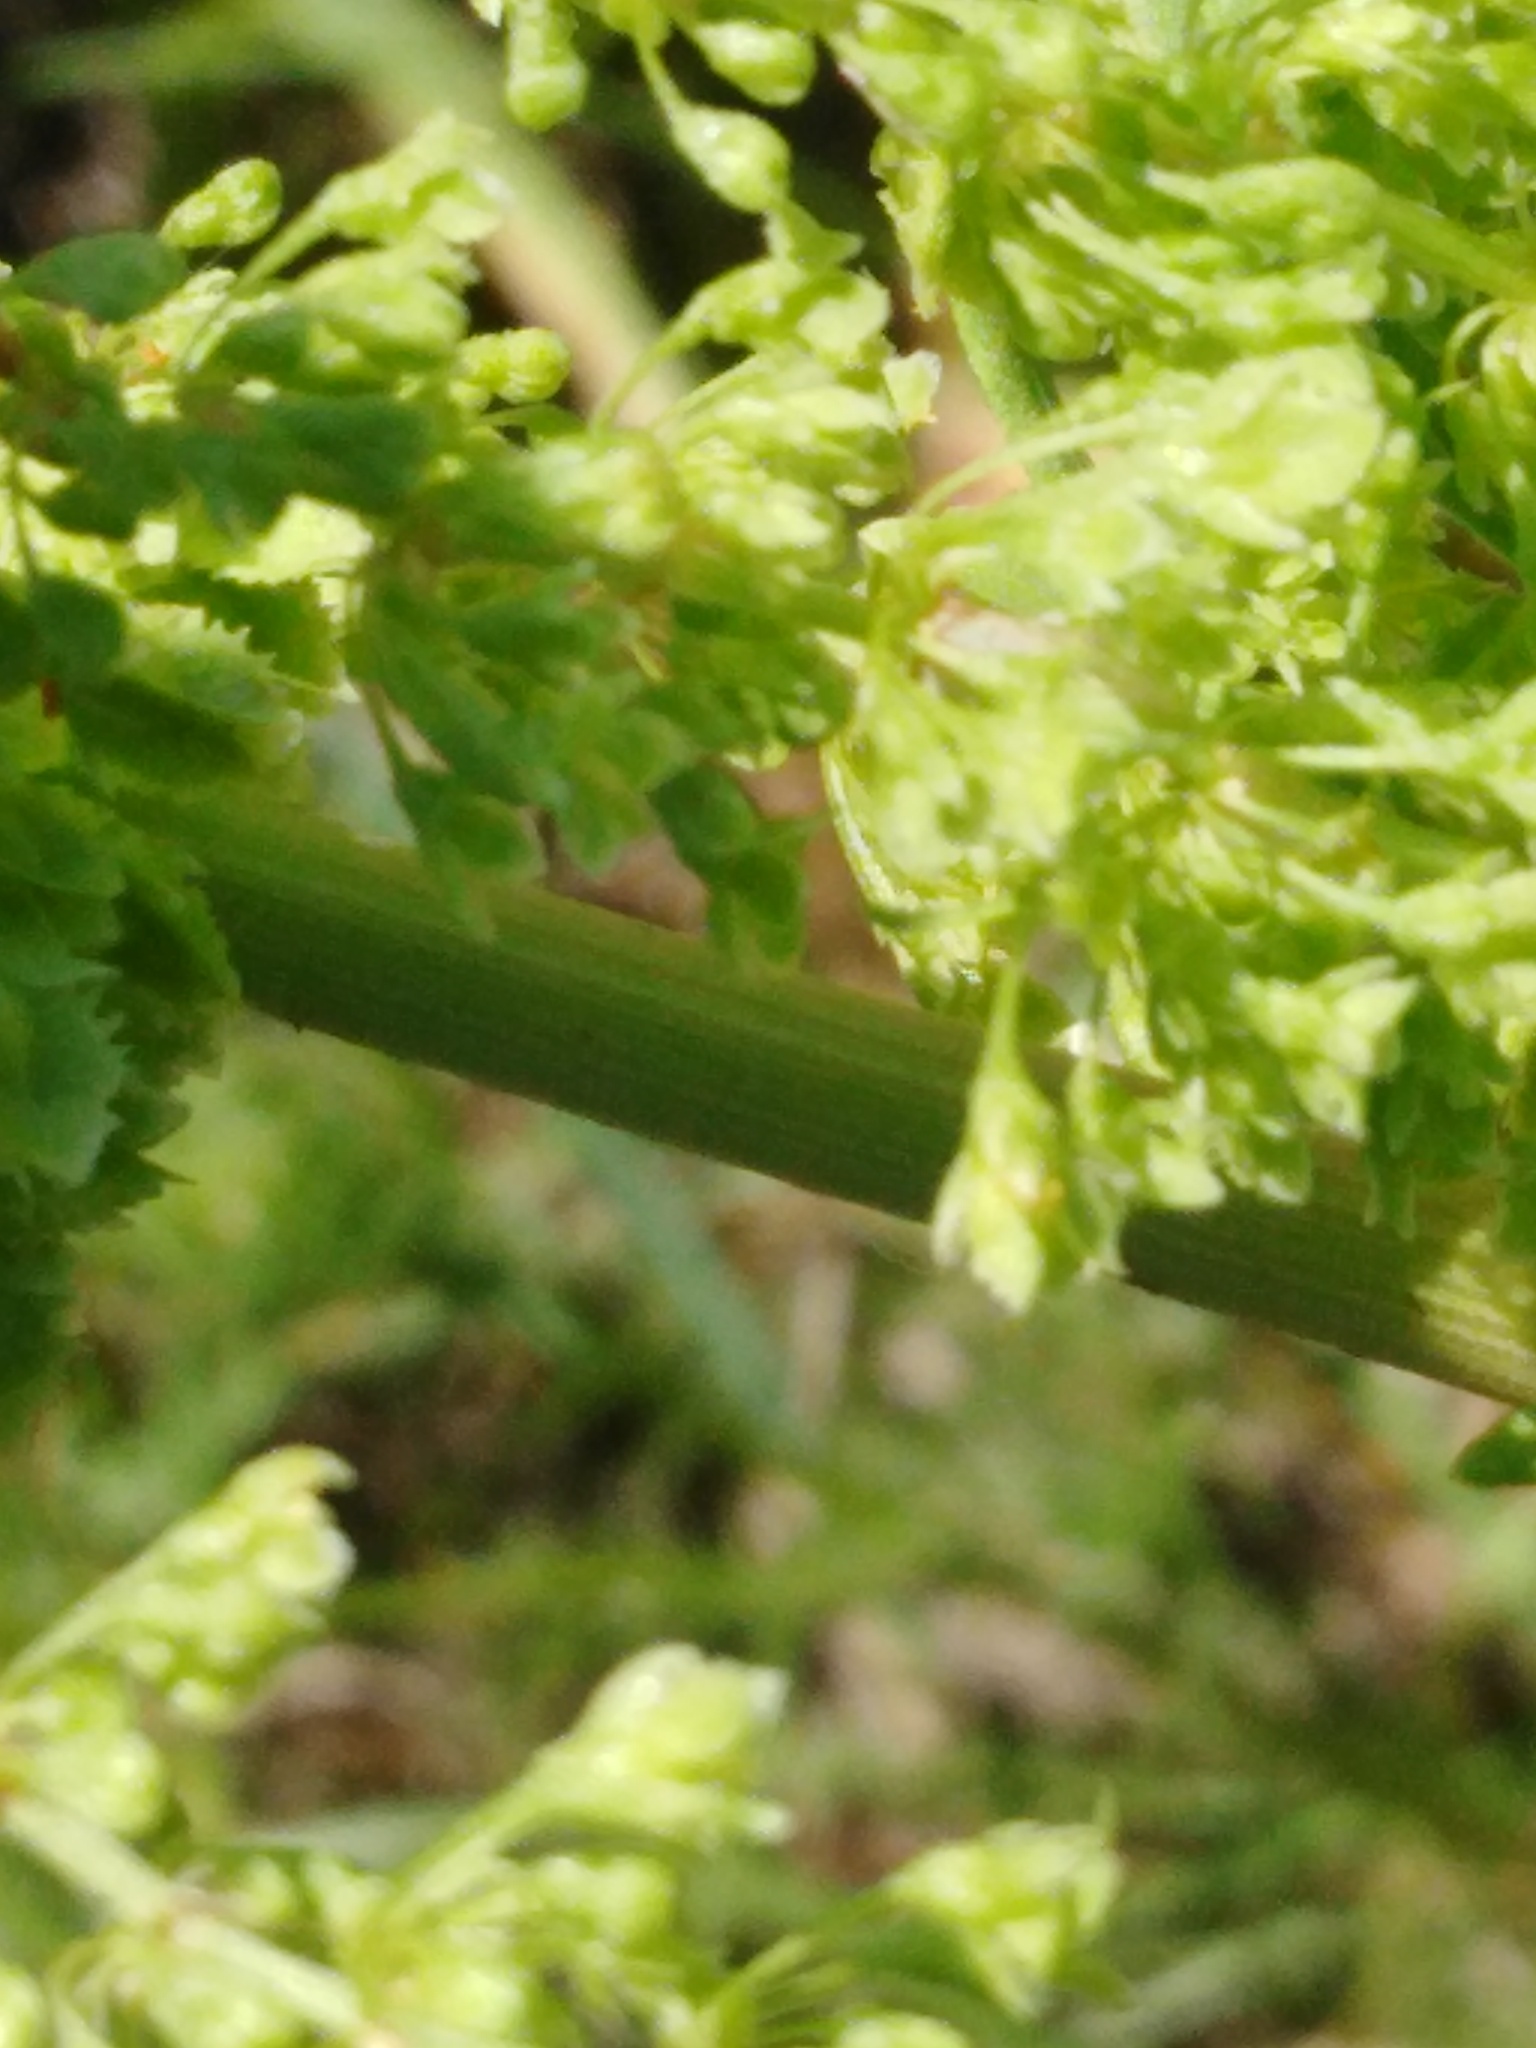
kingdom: Plantae
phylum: Tracheophyta
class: Magnoliopsida
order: Caryophyllales
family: Polygonaceae
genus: Rumex
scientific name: Rumex stenophyllus
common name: Narrowleaf dock
